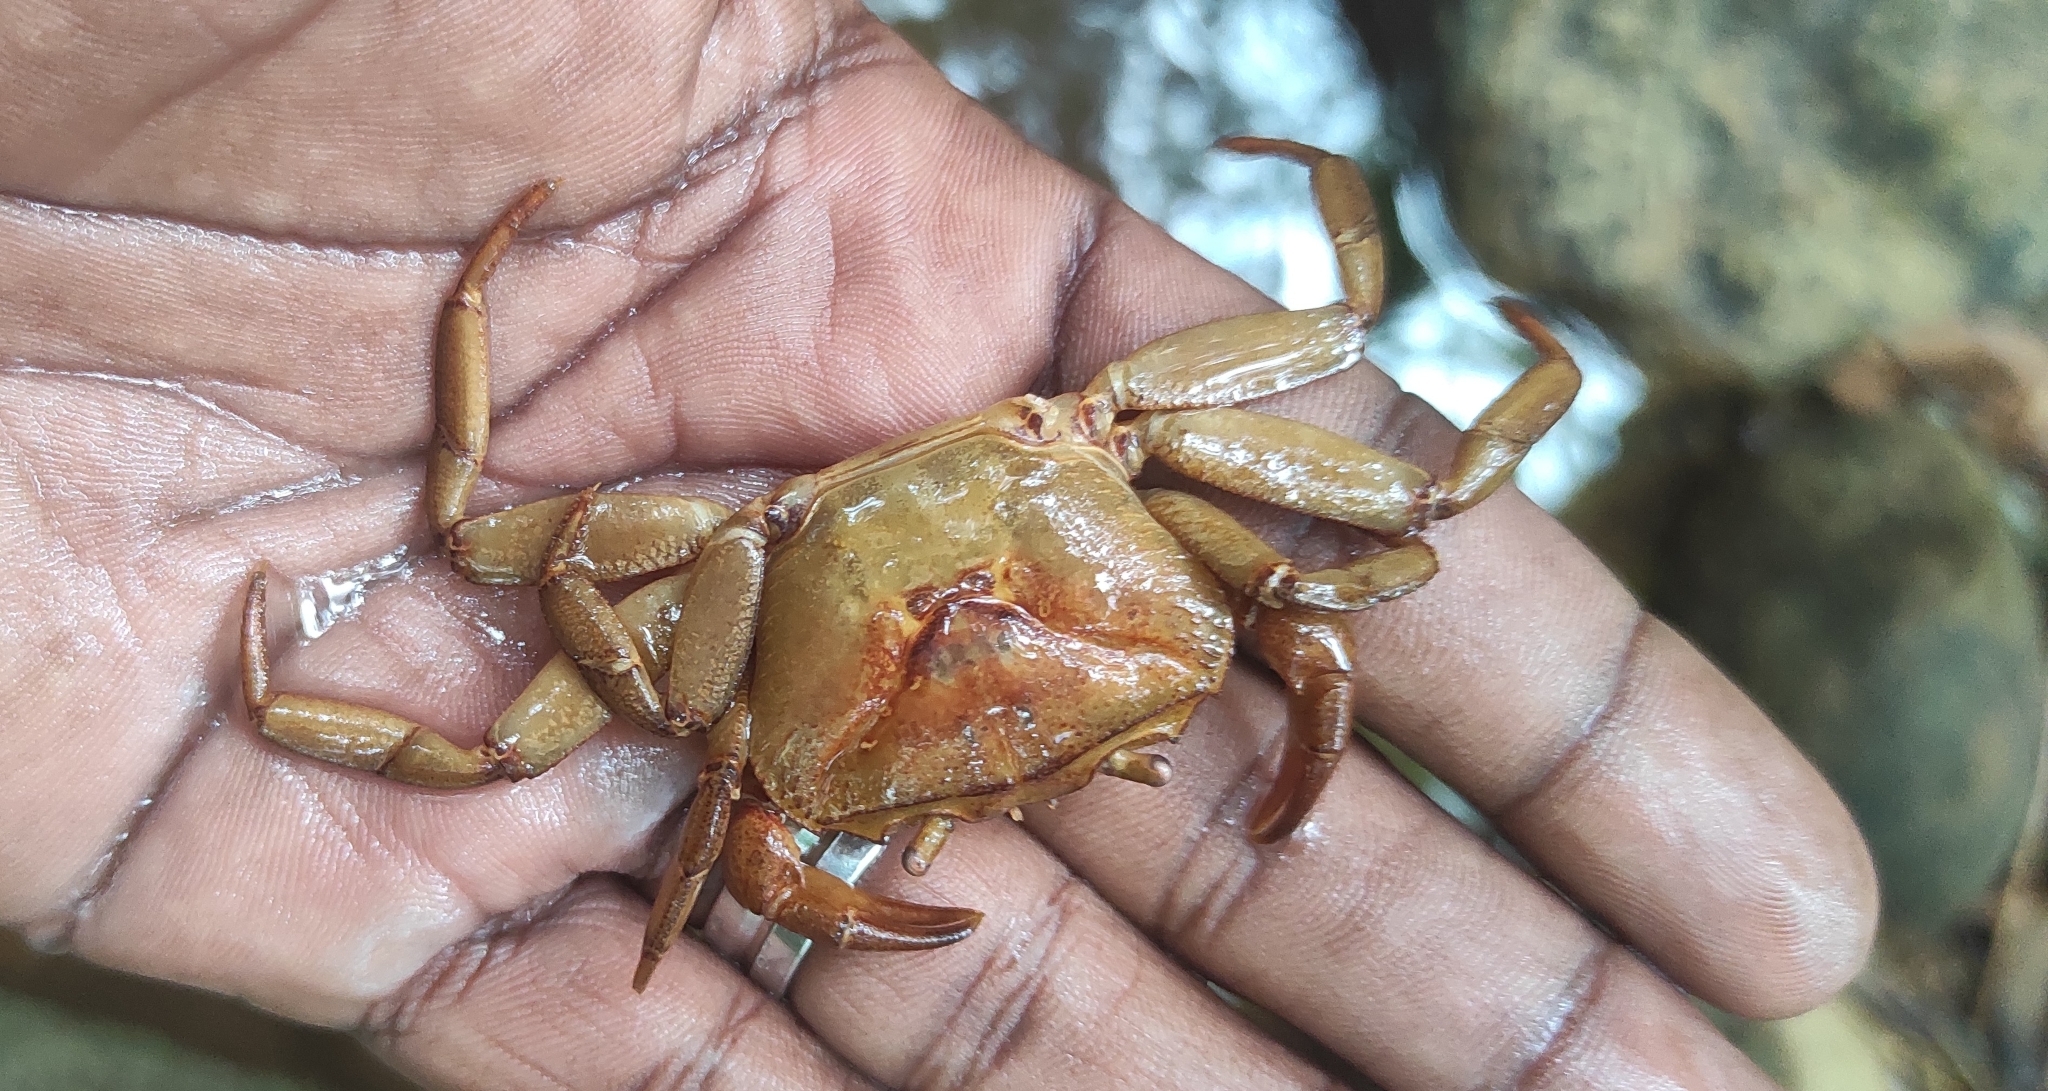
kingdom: Animalia
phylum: Arthropoda
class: Malacostraca
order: Decapoda
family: Gecarcinucidae
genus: Barytelphusa
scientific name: Barytelphusa cunicularis
